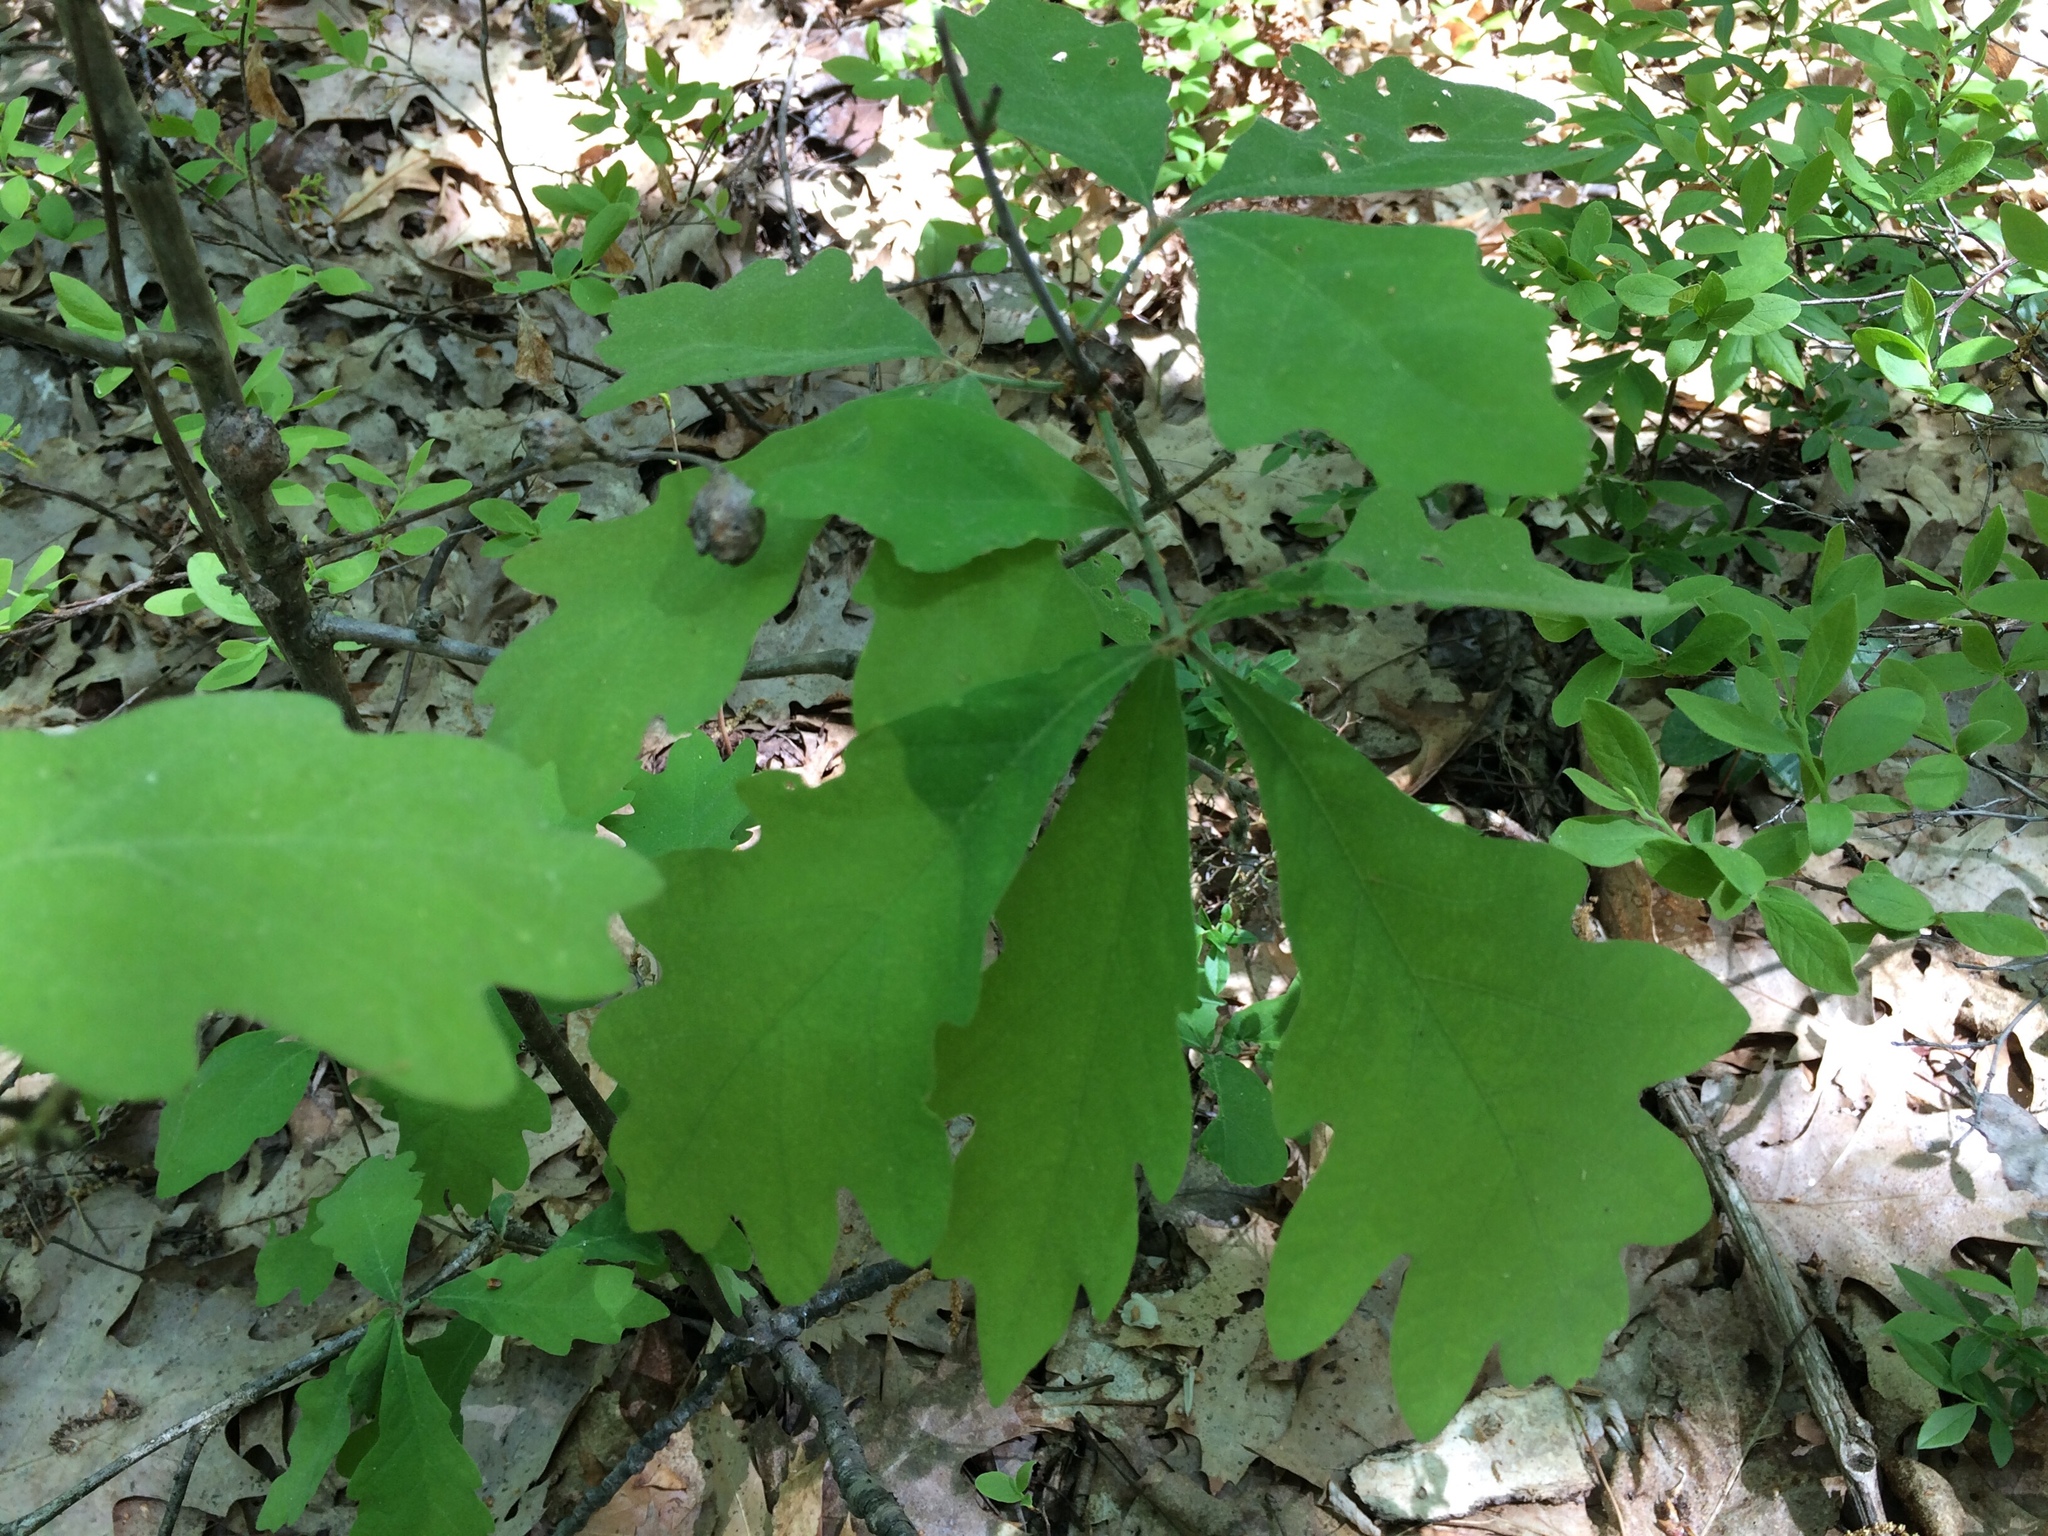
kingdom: Plantae
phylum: Tracheophyta
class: Magnoliopsida
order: Fagales
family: Fagaceae
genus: Quercus
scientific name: Quercus alba
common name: White oak
